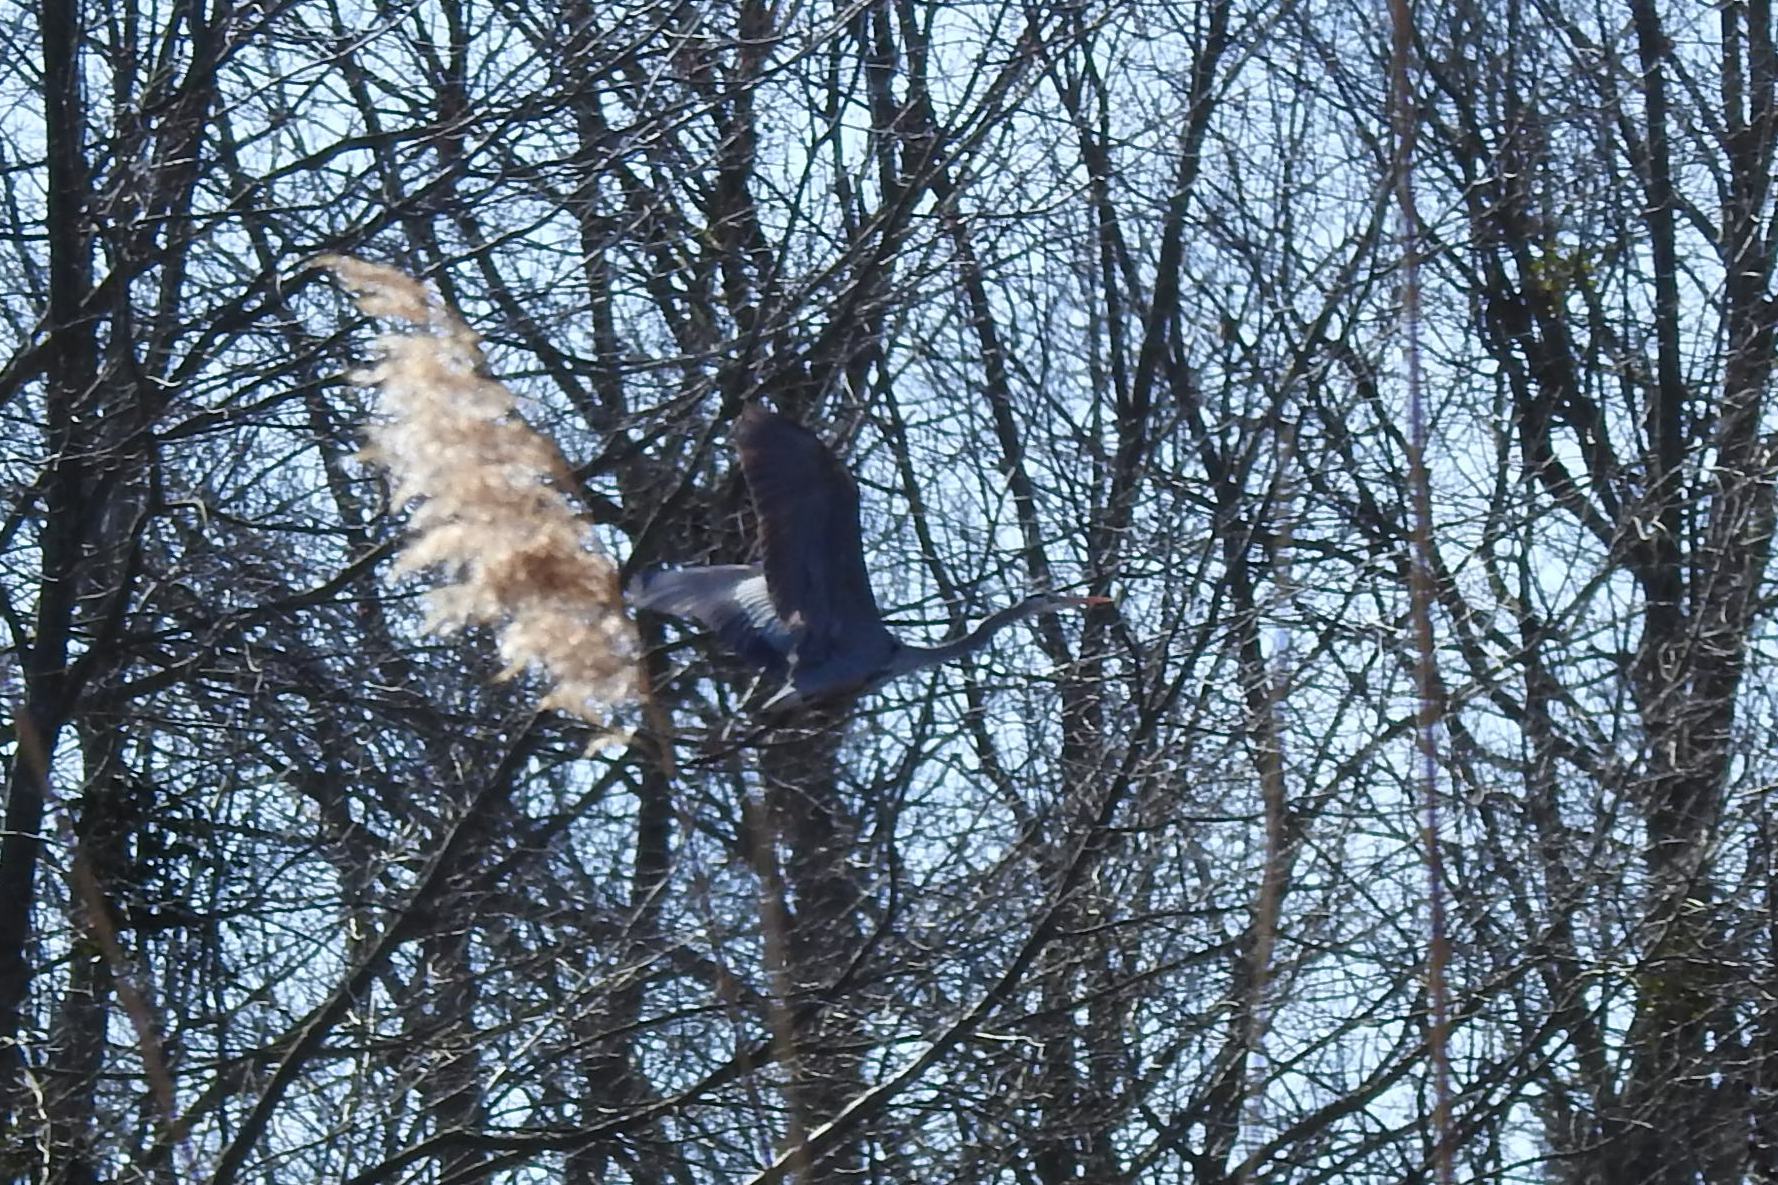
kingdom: Animalia
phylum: Chordata
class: Aves
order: Pelecaniformes
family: Ardeidae
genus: Ardea
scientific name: Ardea herodias
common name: Great blue heron
